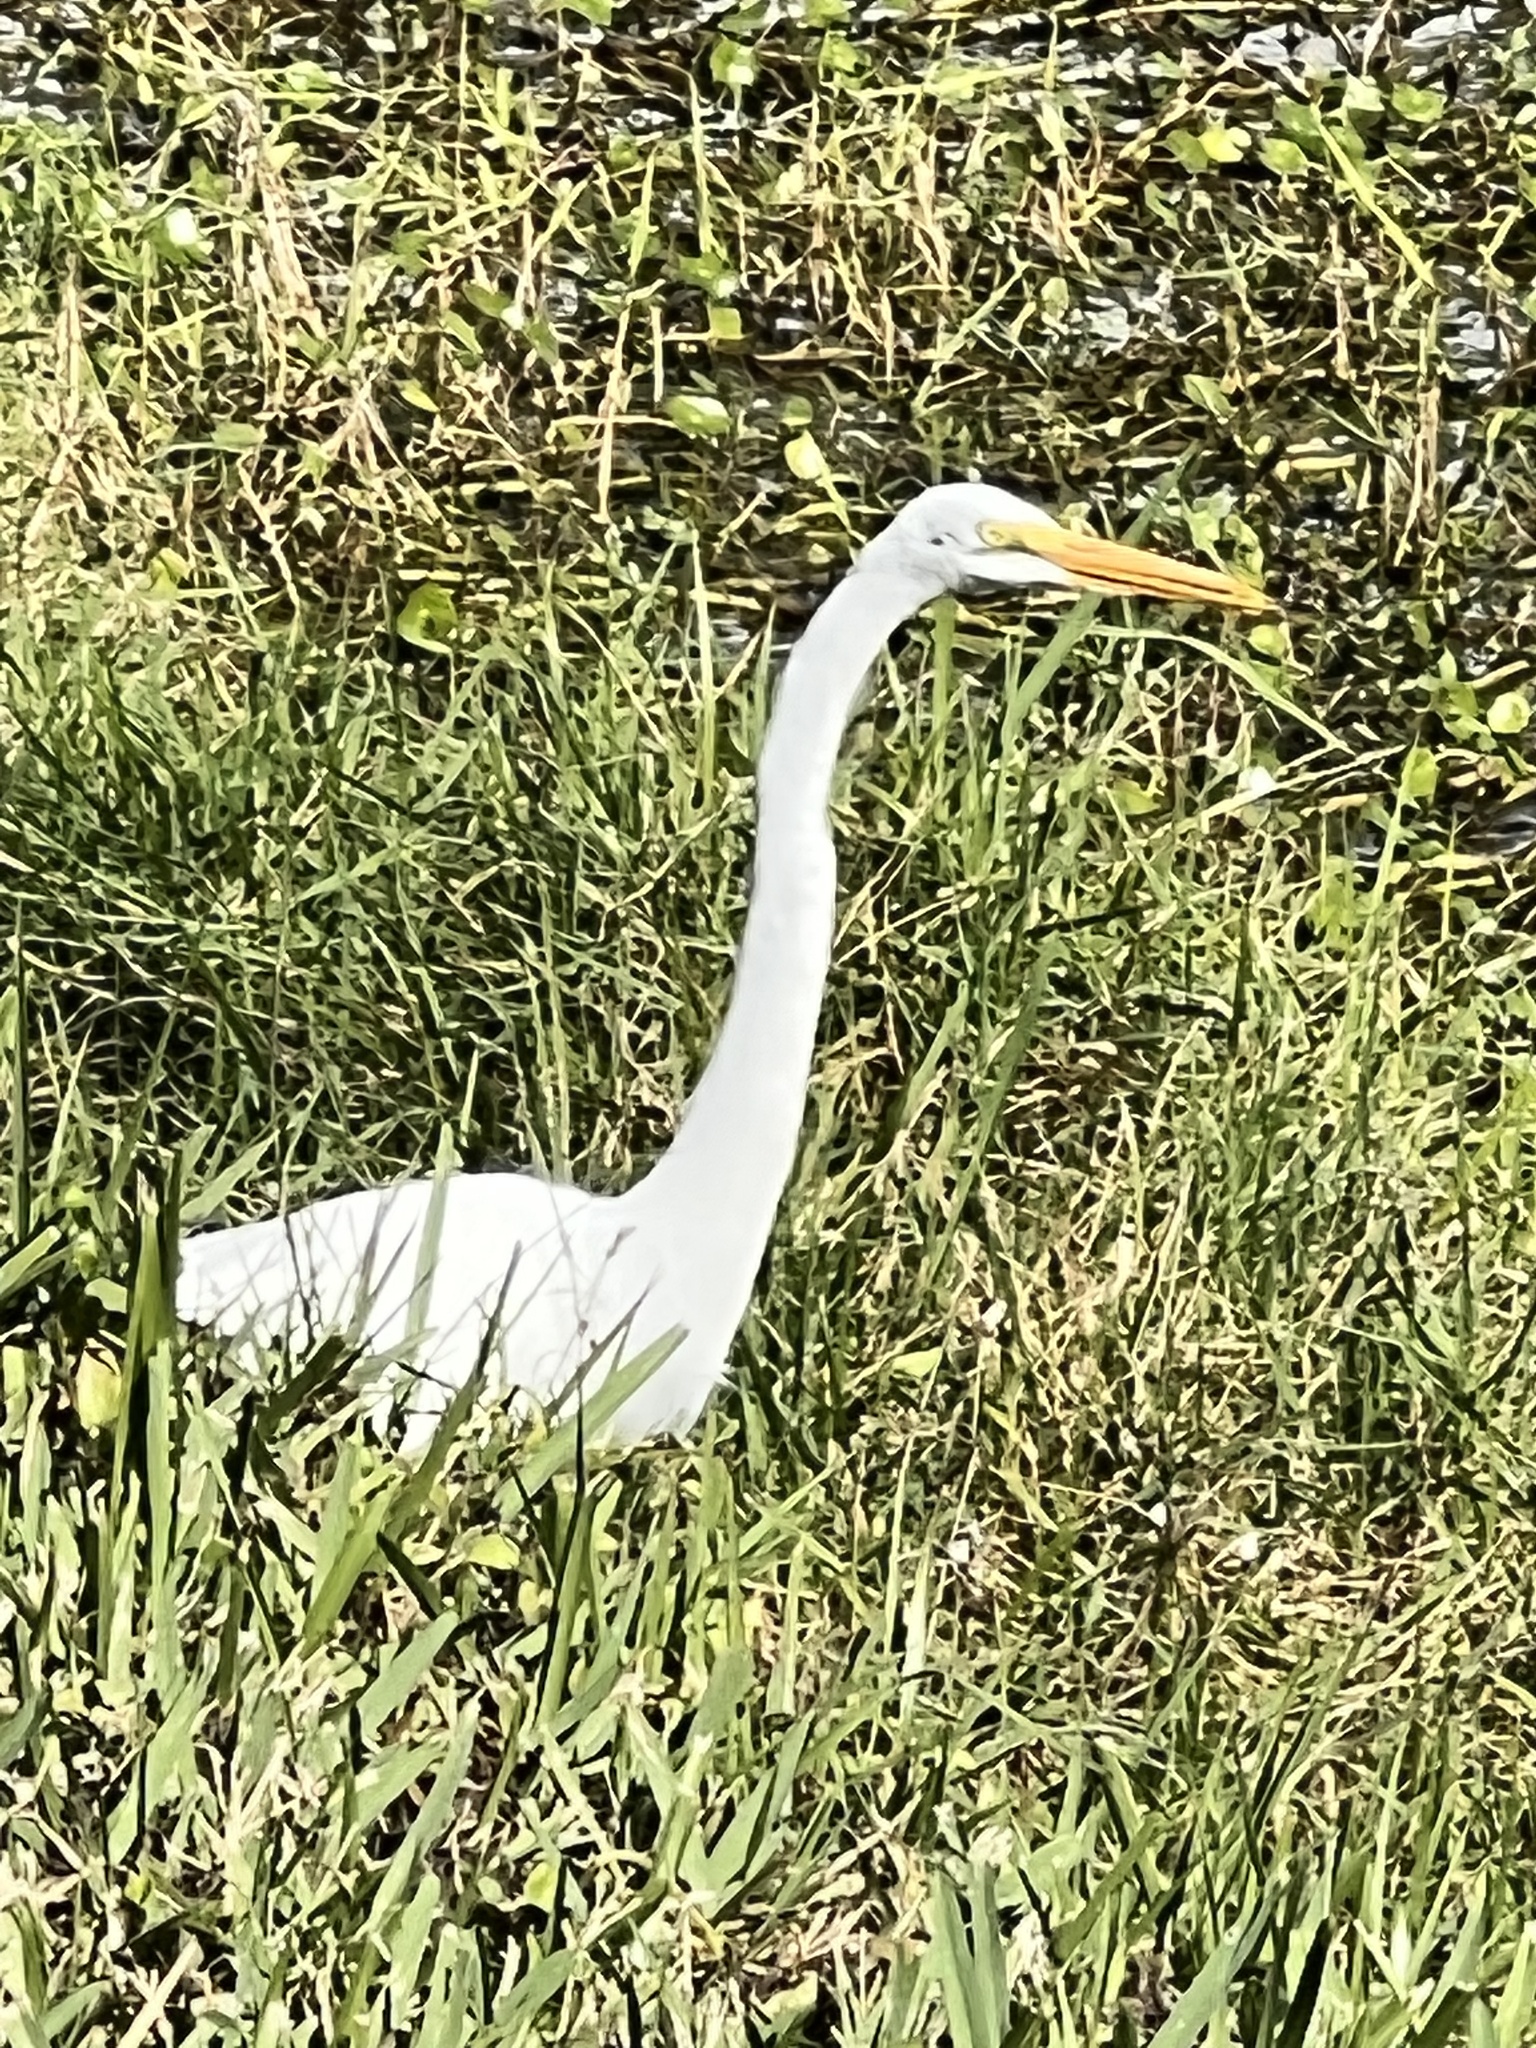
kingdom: Animalia
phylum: Chordata
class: Aves
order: Pelecaniformes
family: Ardeidae
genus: Ardea
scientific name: Ardea alba
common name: Great egret
